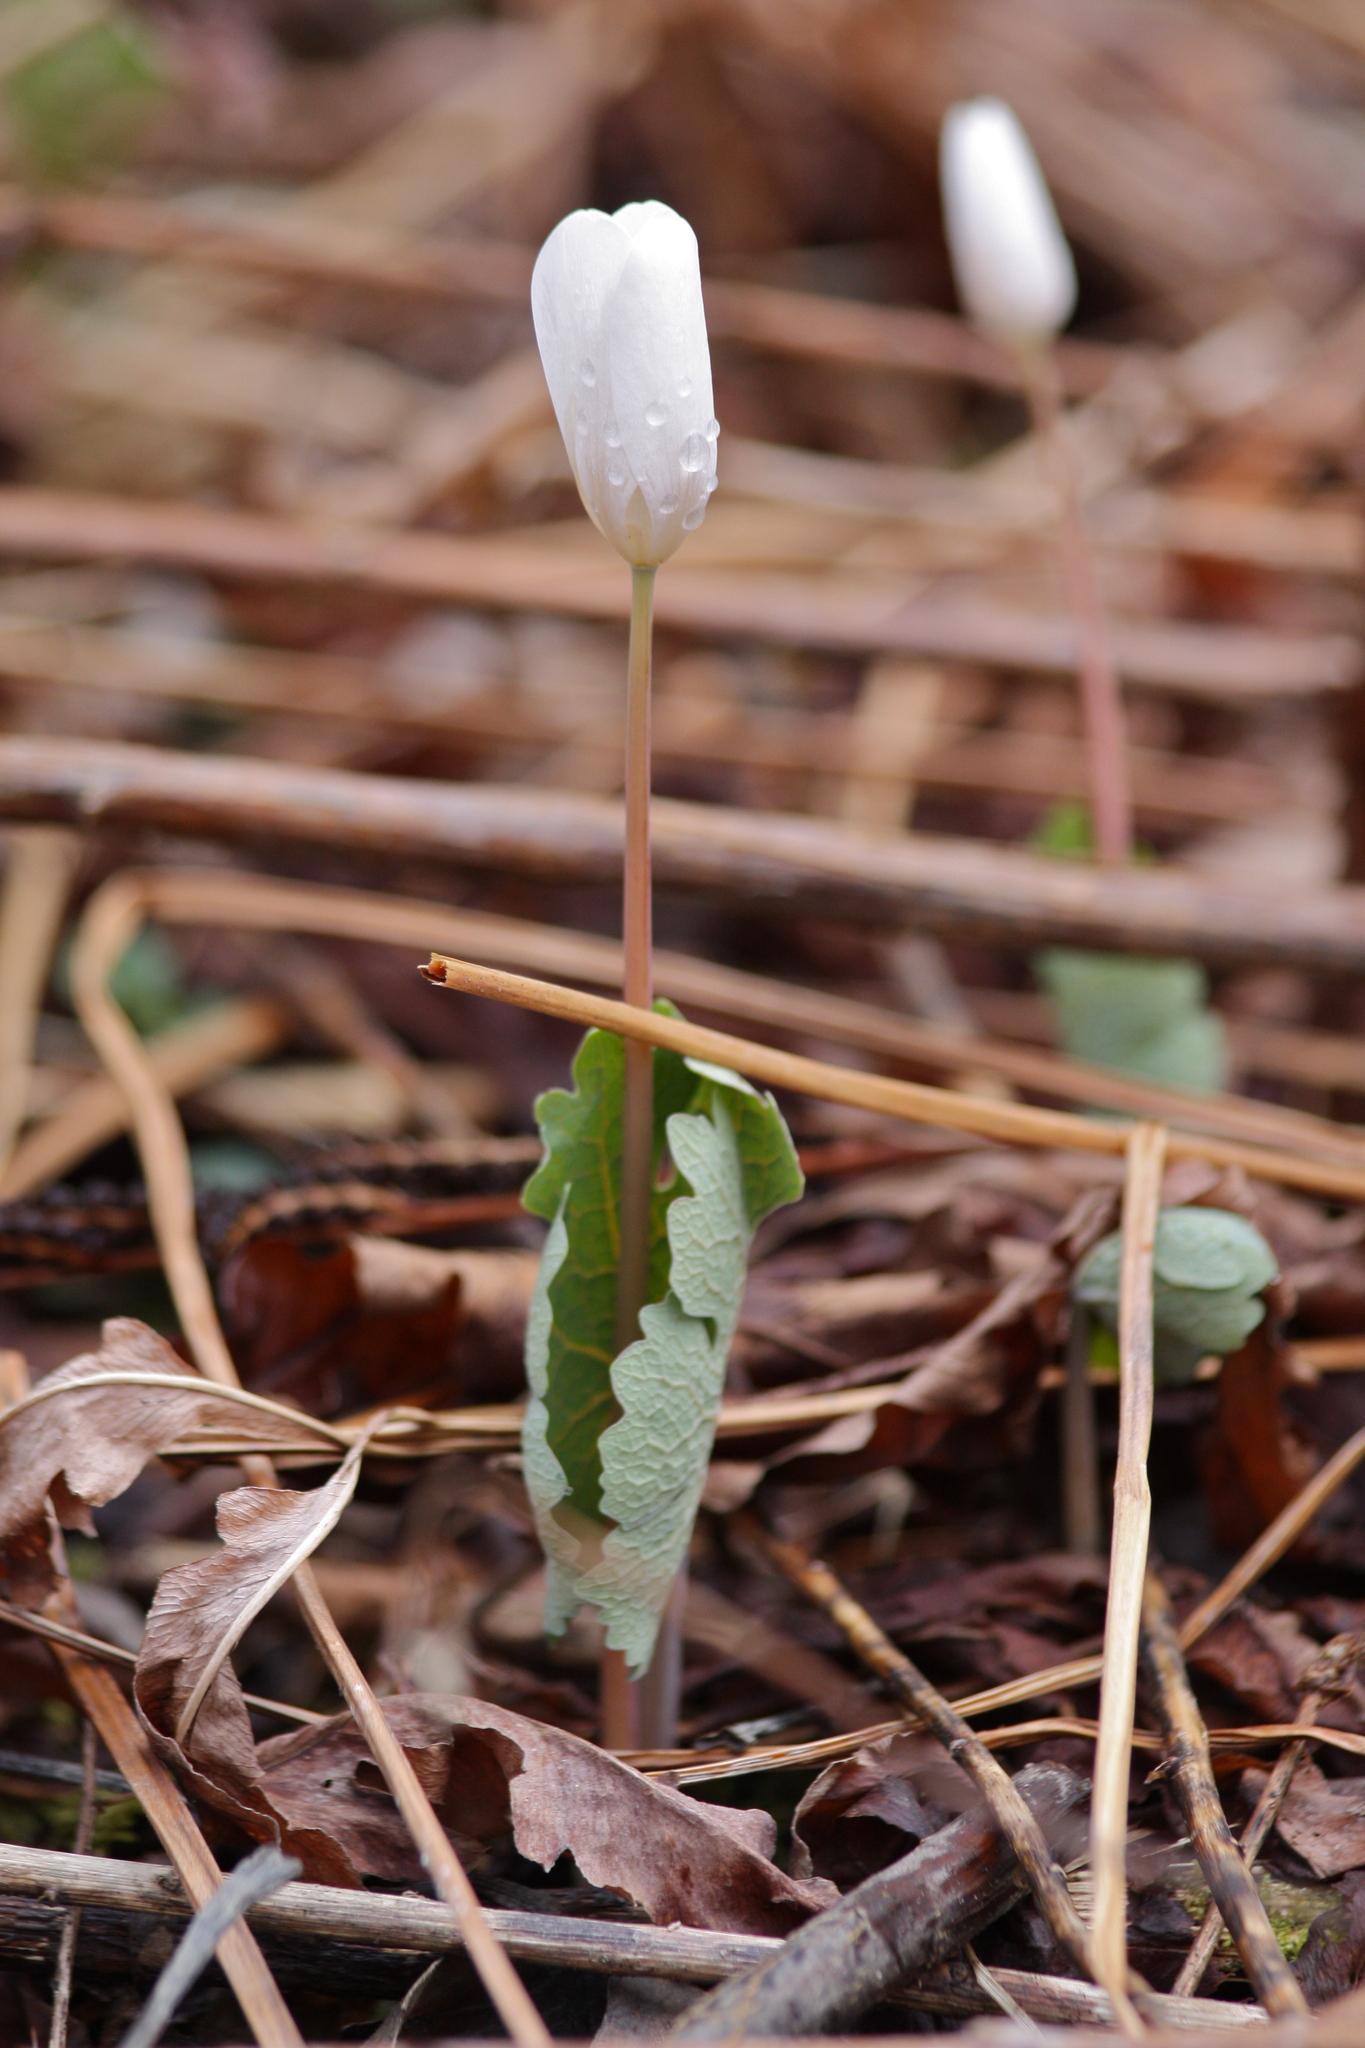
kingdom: Plantae
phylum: Tracheophyta
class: Magnoliopsida
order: Ranunculales
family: Papaveraceae
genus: Sanguinaria
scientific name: Sanguinaria canadensis
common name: Bloodroot
